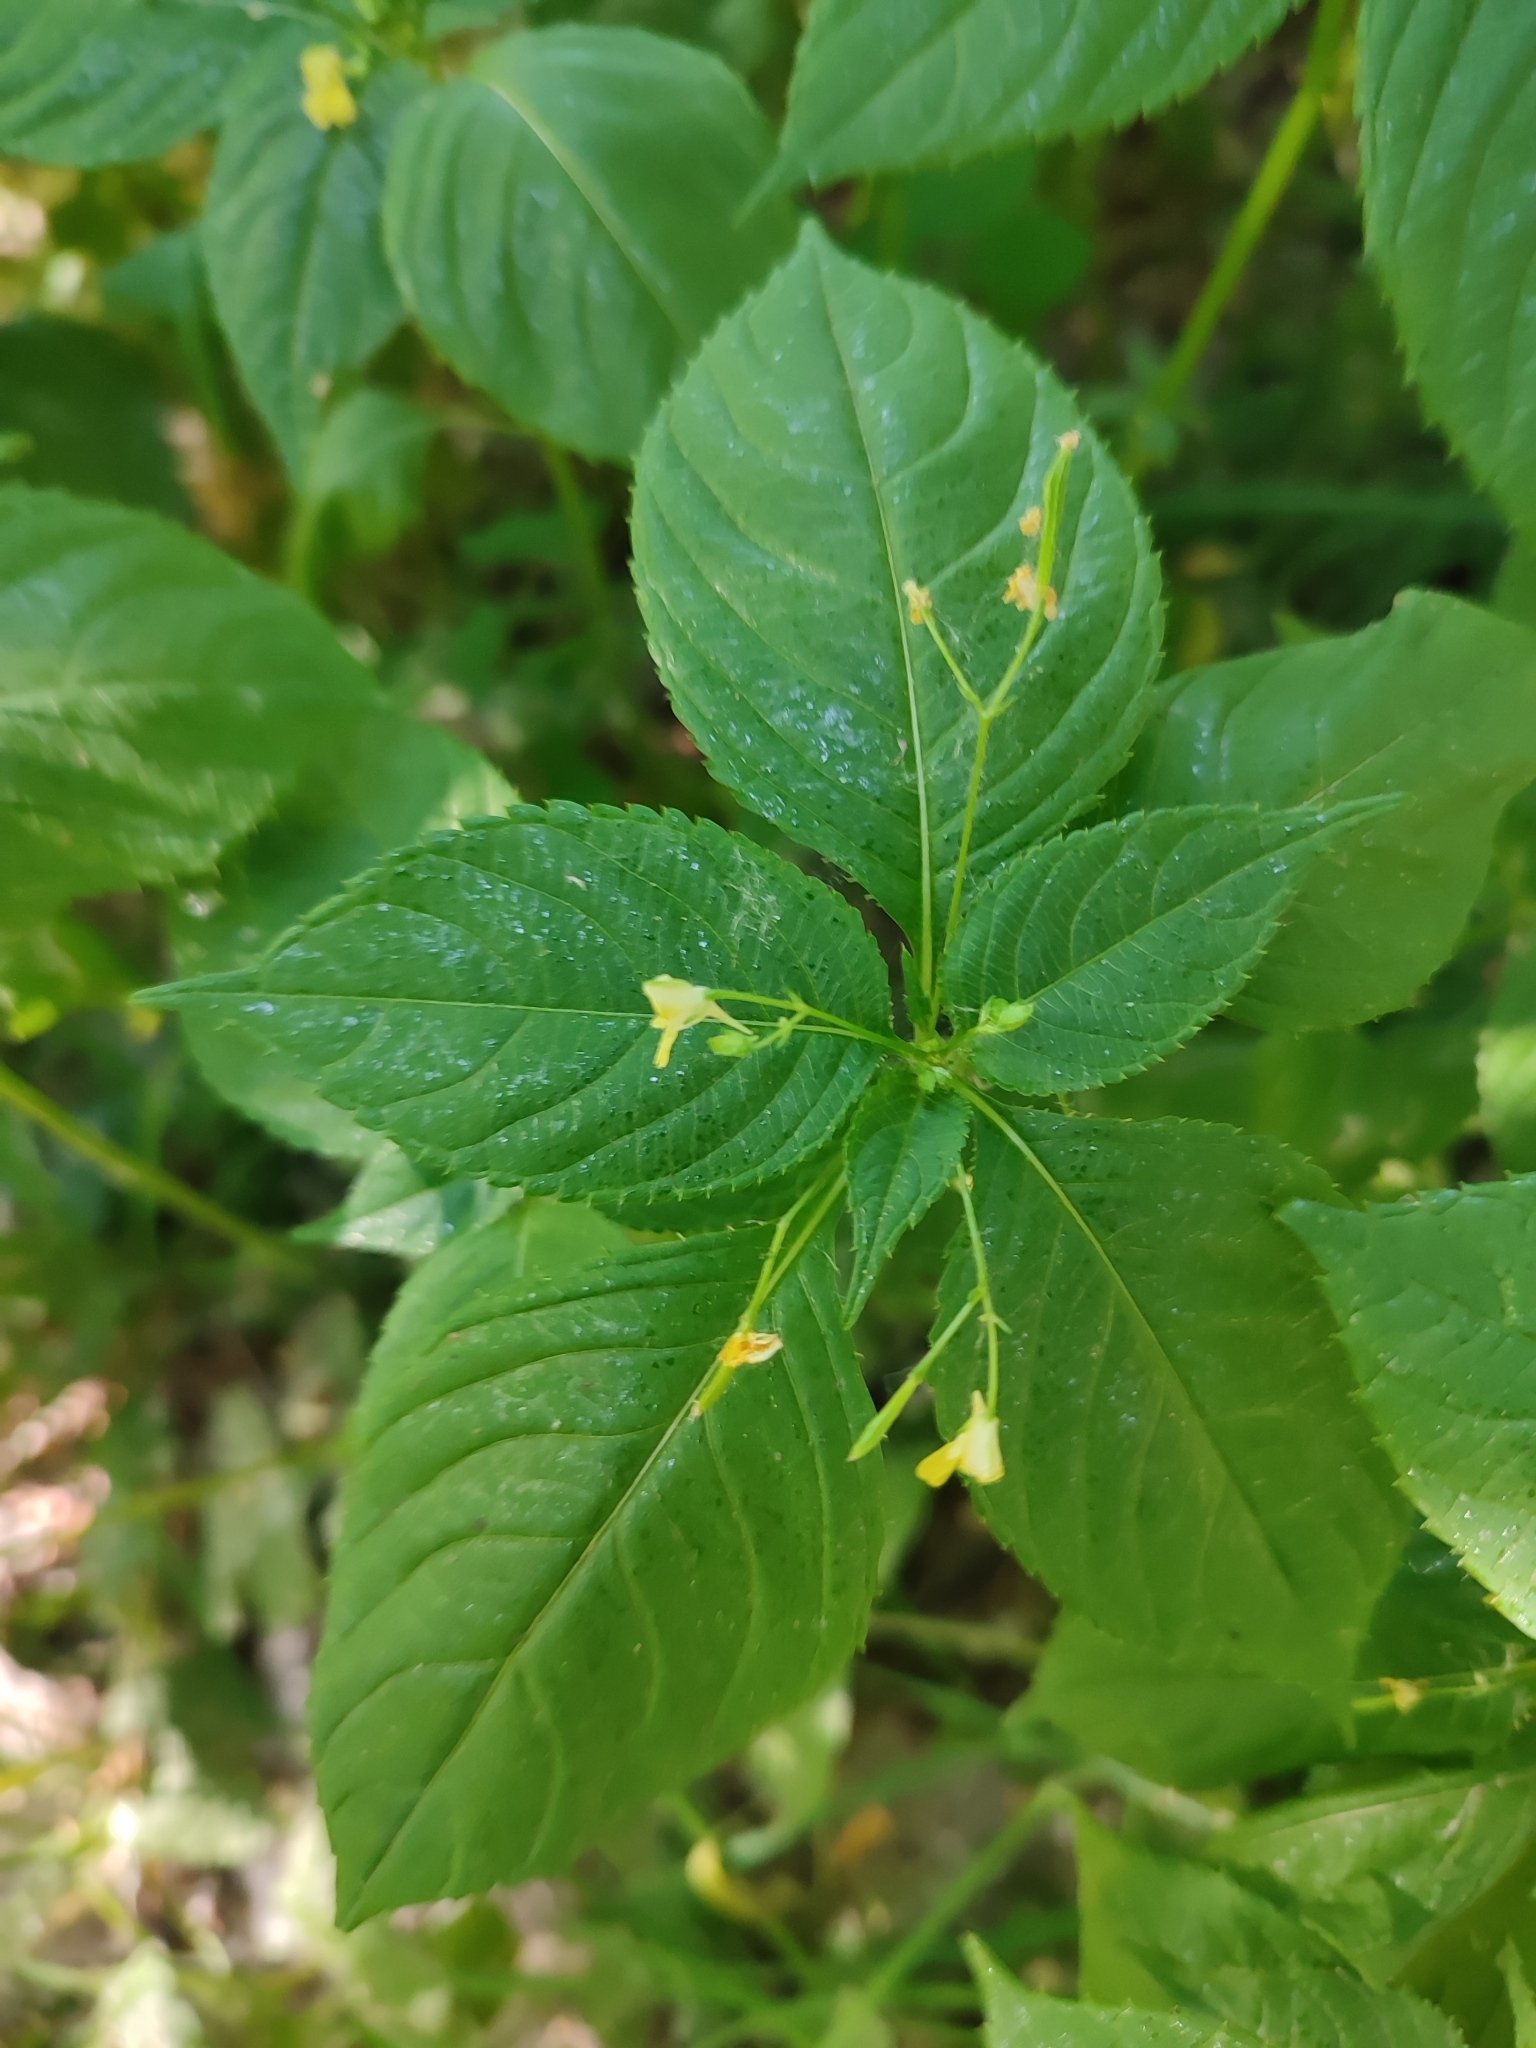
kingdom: Plantae
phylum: Tracheophyta
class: Magnoliopsida
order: Ericales
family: Balsaminaceae
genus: Impatiens
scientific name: Impatiens parviflora
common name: Small balsam
